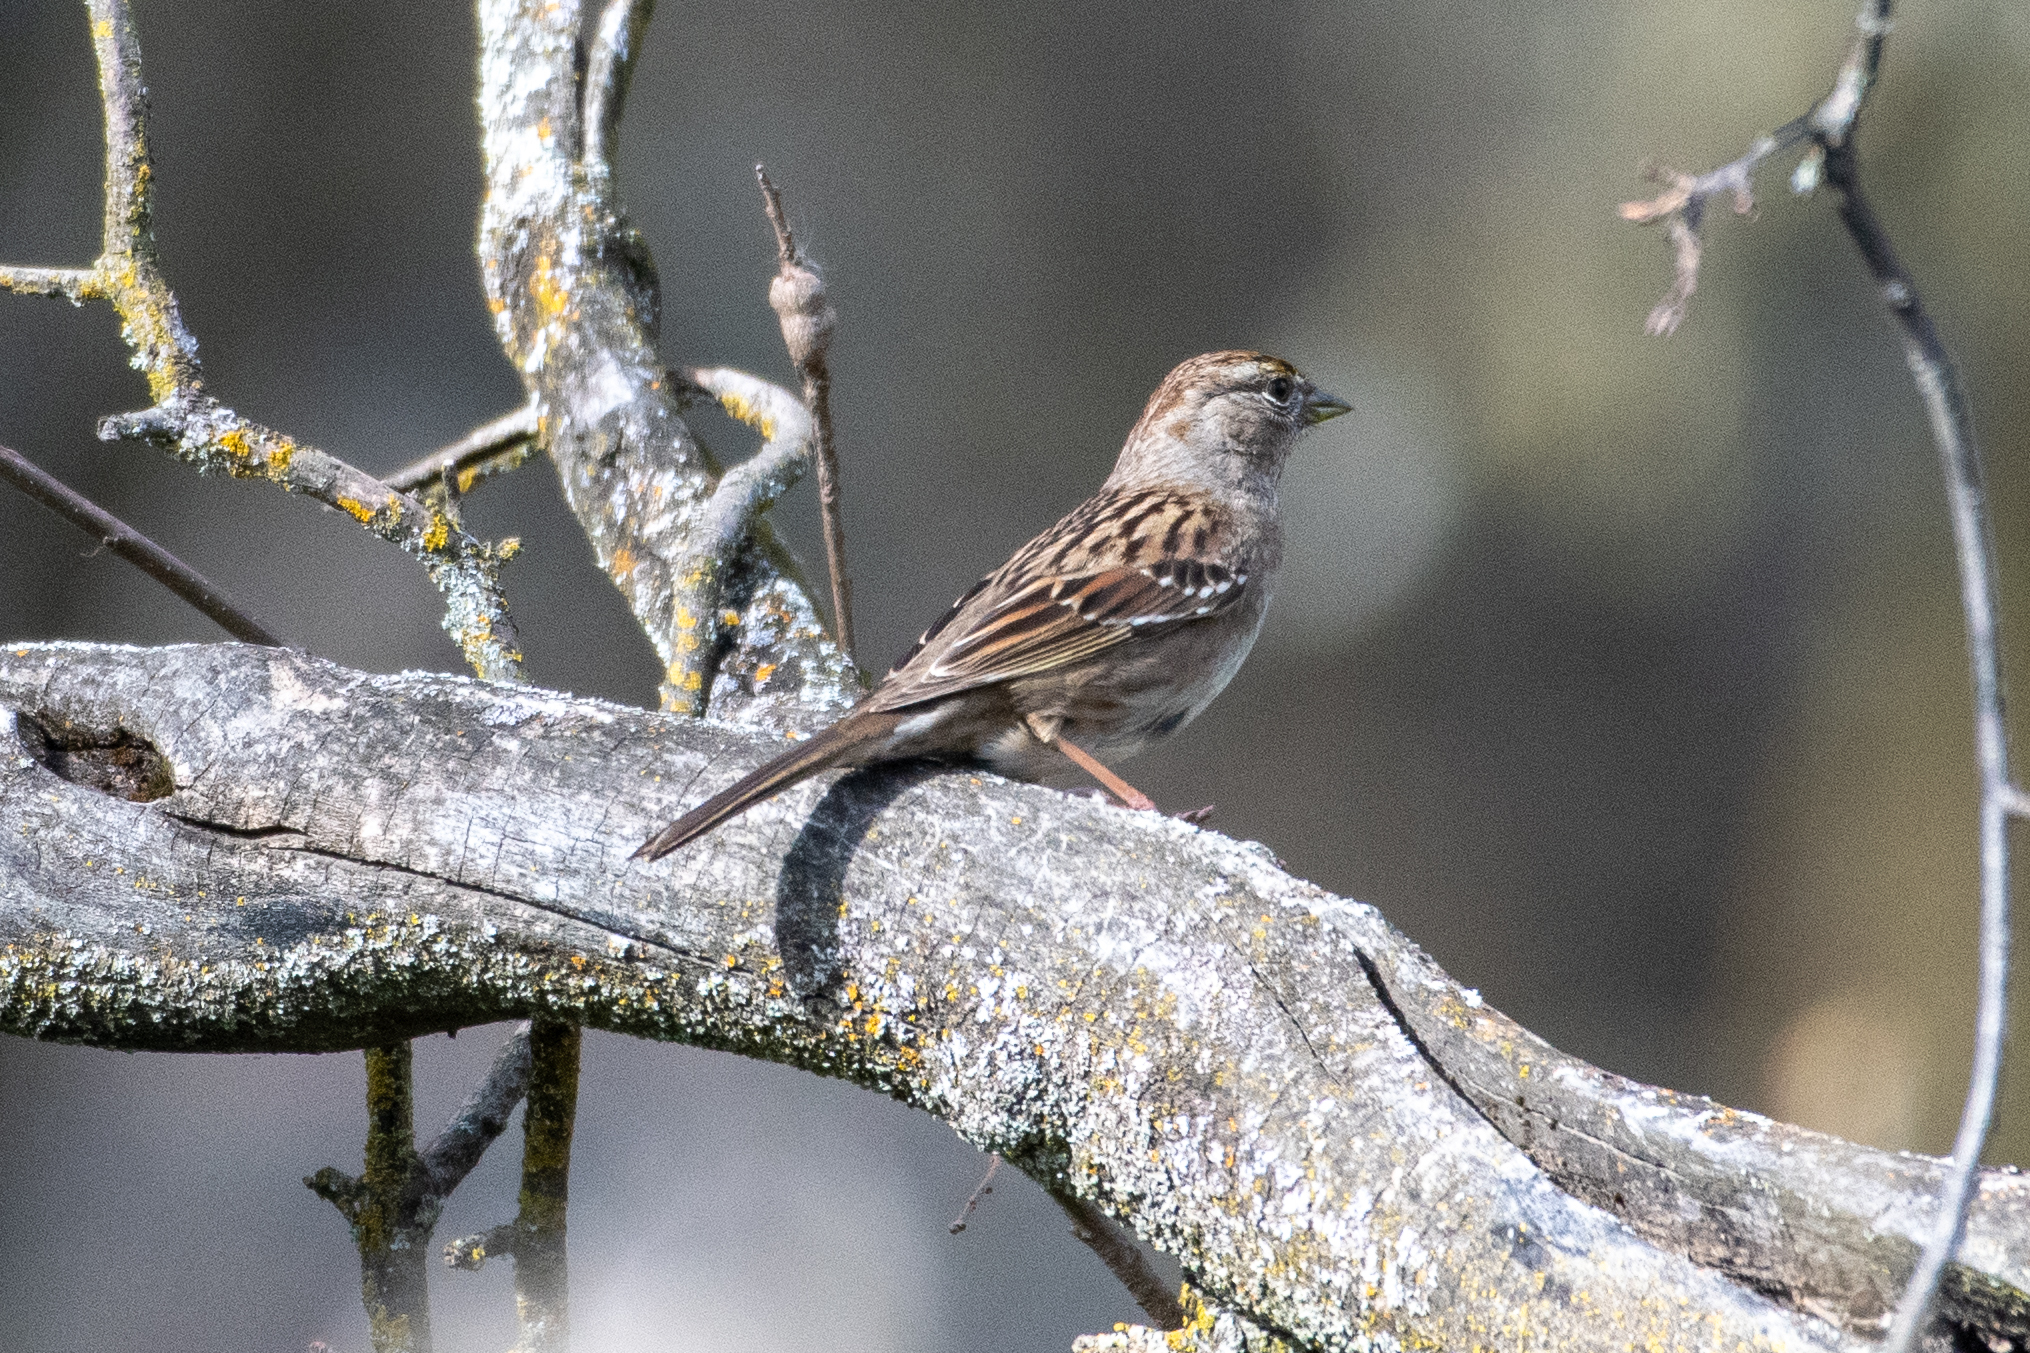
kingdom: Animalia
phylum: Chordata
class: Aves
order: Passeriformes
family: Passerellidae
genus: Zonotrichia
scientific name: Zonotrichia atricapilla
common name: Golden-crowned sparrow
